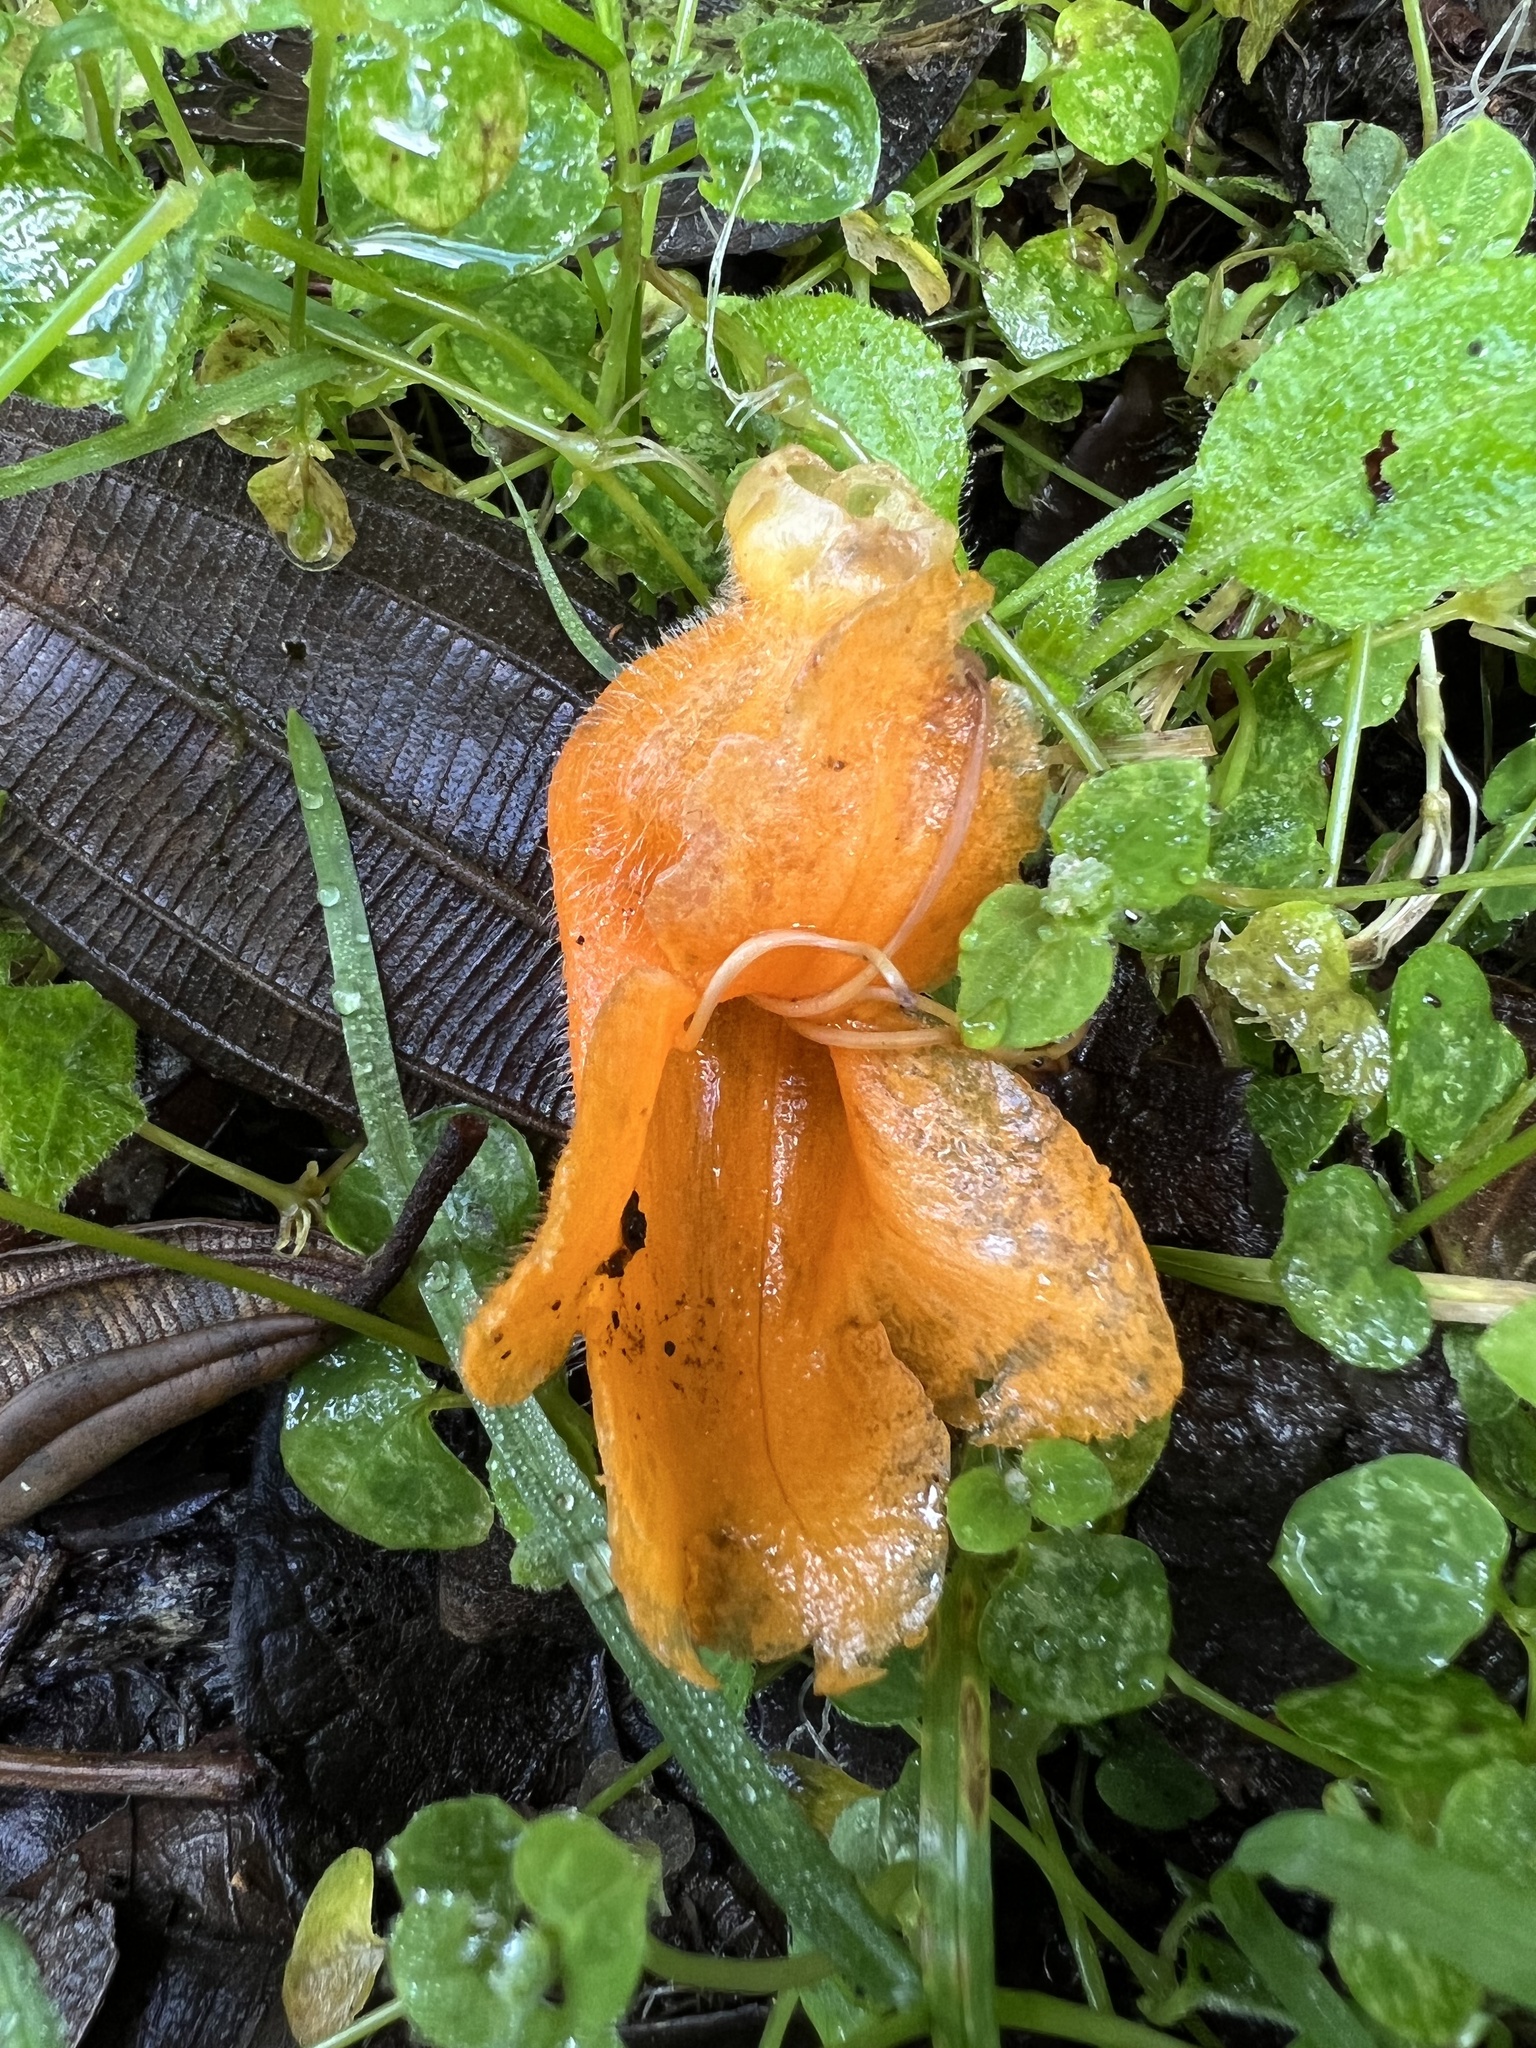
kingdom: Plantae
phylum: Tracheophyta
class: Magnoliopsida
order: Lamiales
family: Gesneriaceae
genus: Columnea
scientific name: Columnea strigosa
